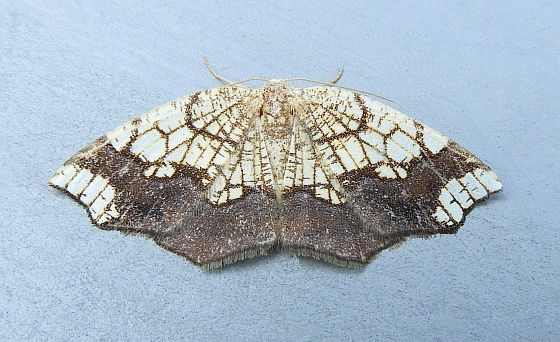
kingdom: Animalia
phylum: Arthropoda
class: Insecta
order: Lepidoptera
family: Geometridae
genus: Nematocampa
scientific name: Nematocampa resistaria
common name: Horned spanworm moth
